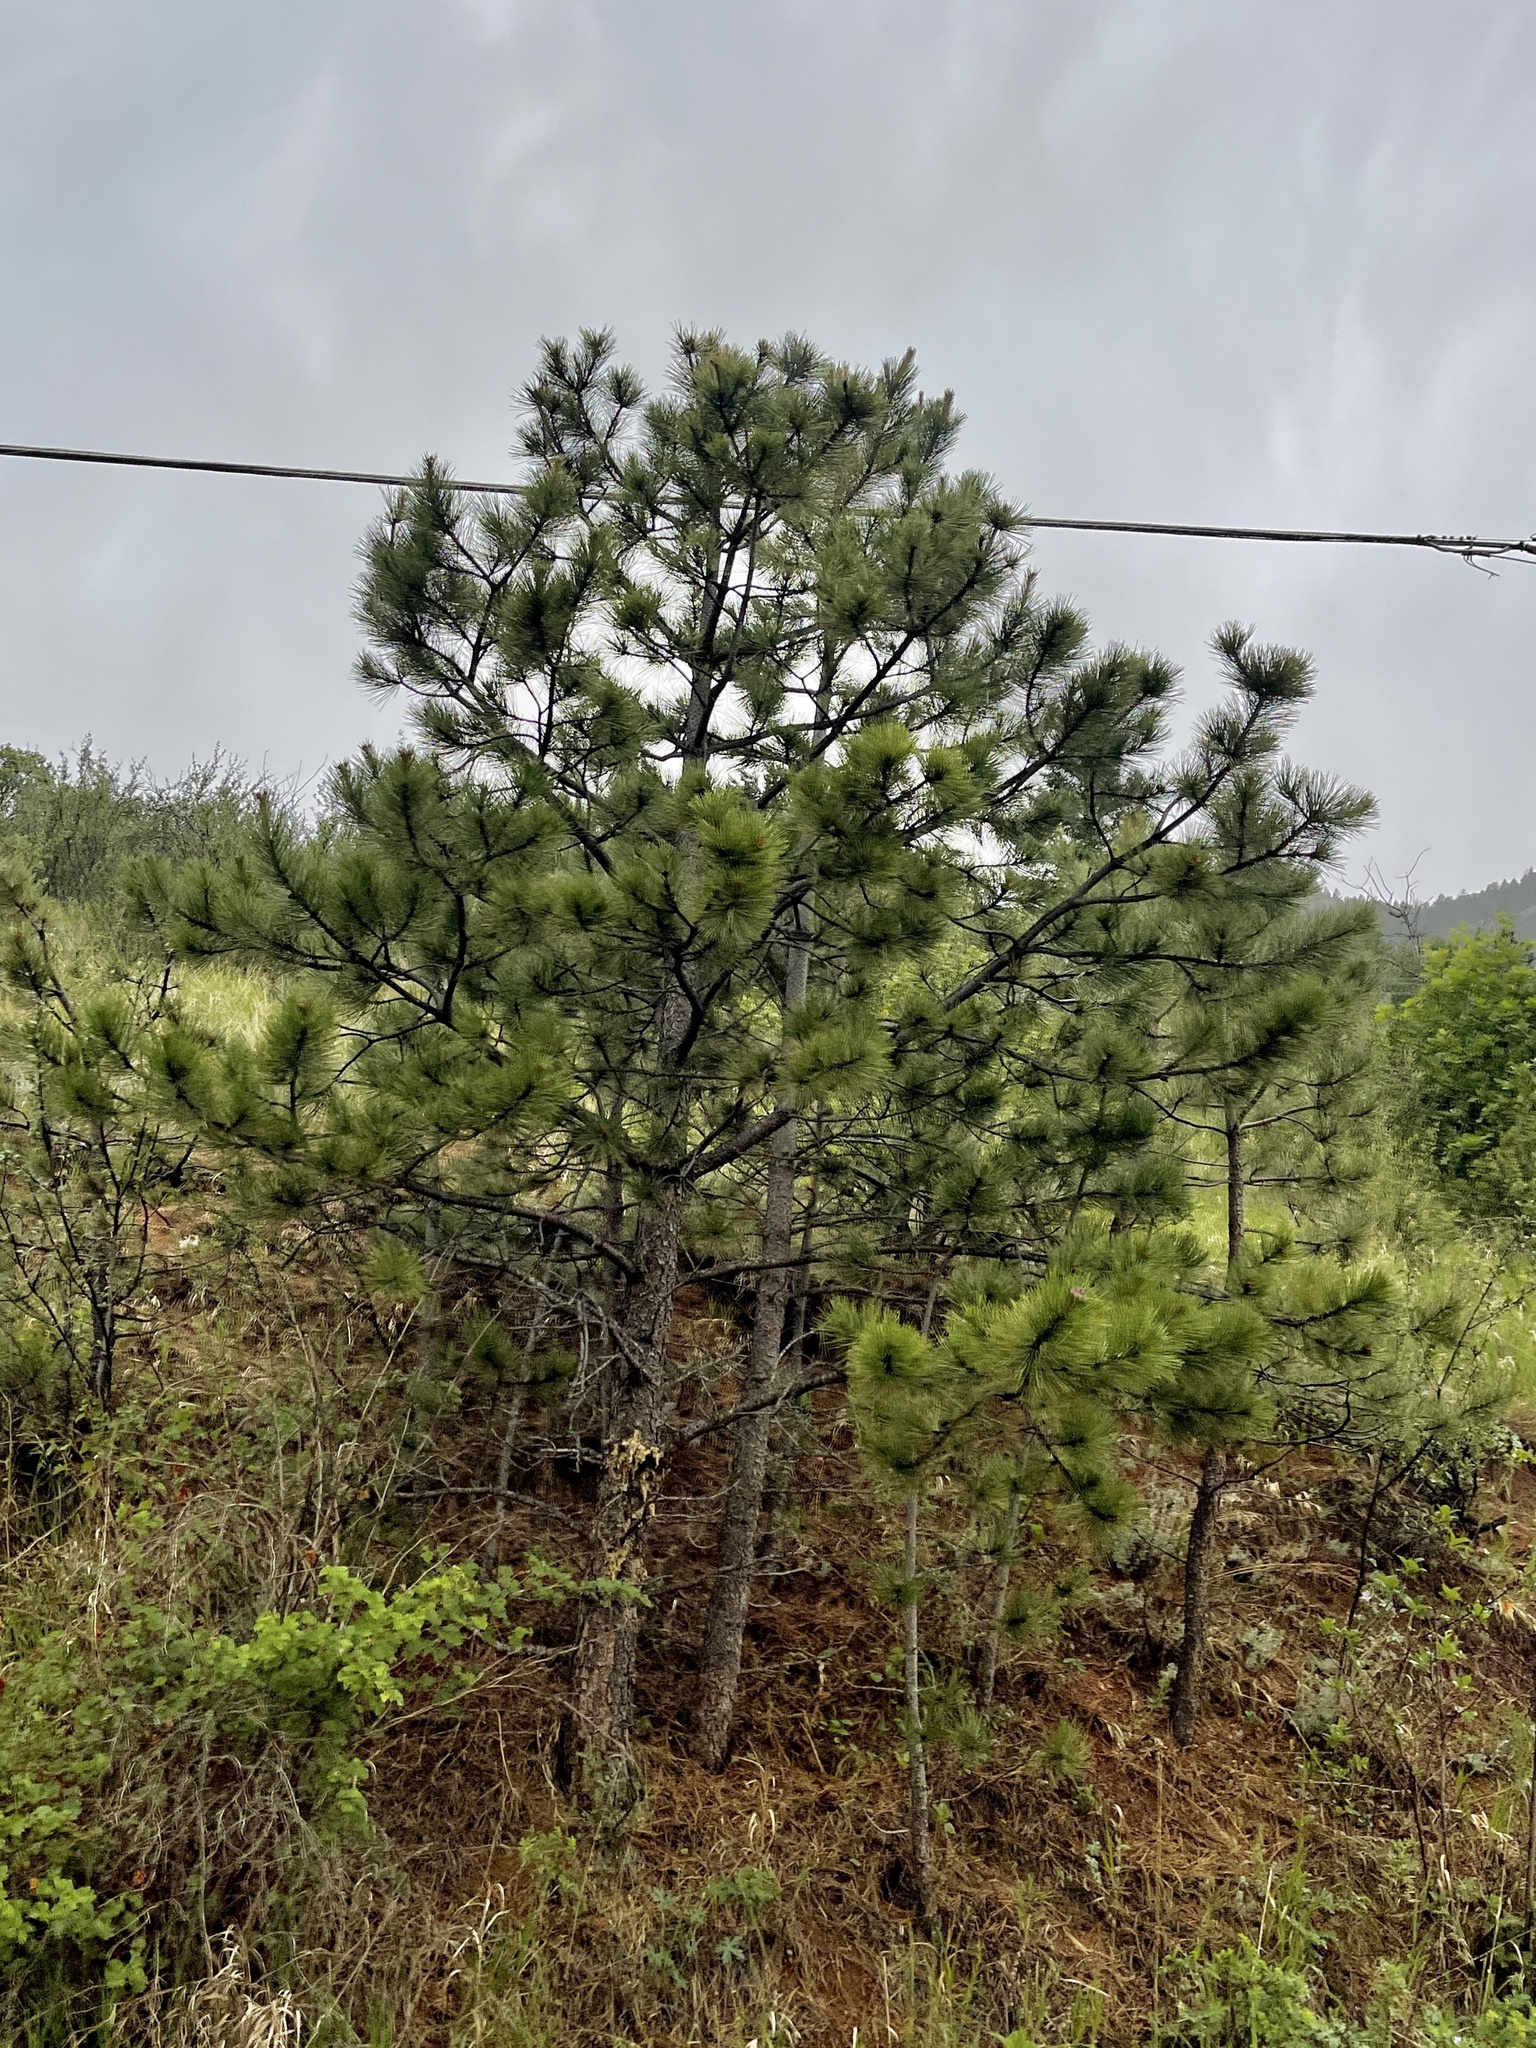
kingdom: Plantae
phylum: Tracheophyta
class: Pinopsida
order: Pinales
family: Pinaceae
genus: Pinus
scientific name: Pinus ponderosa
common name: Western yellow-pine
